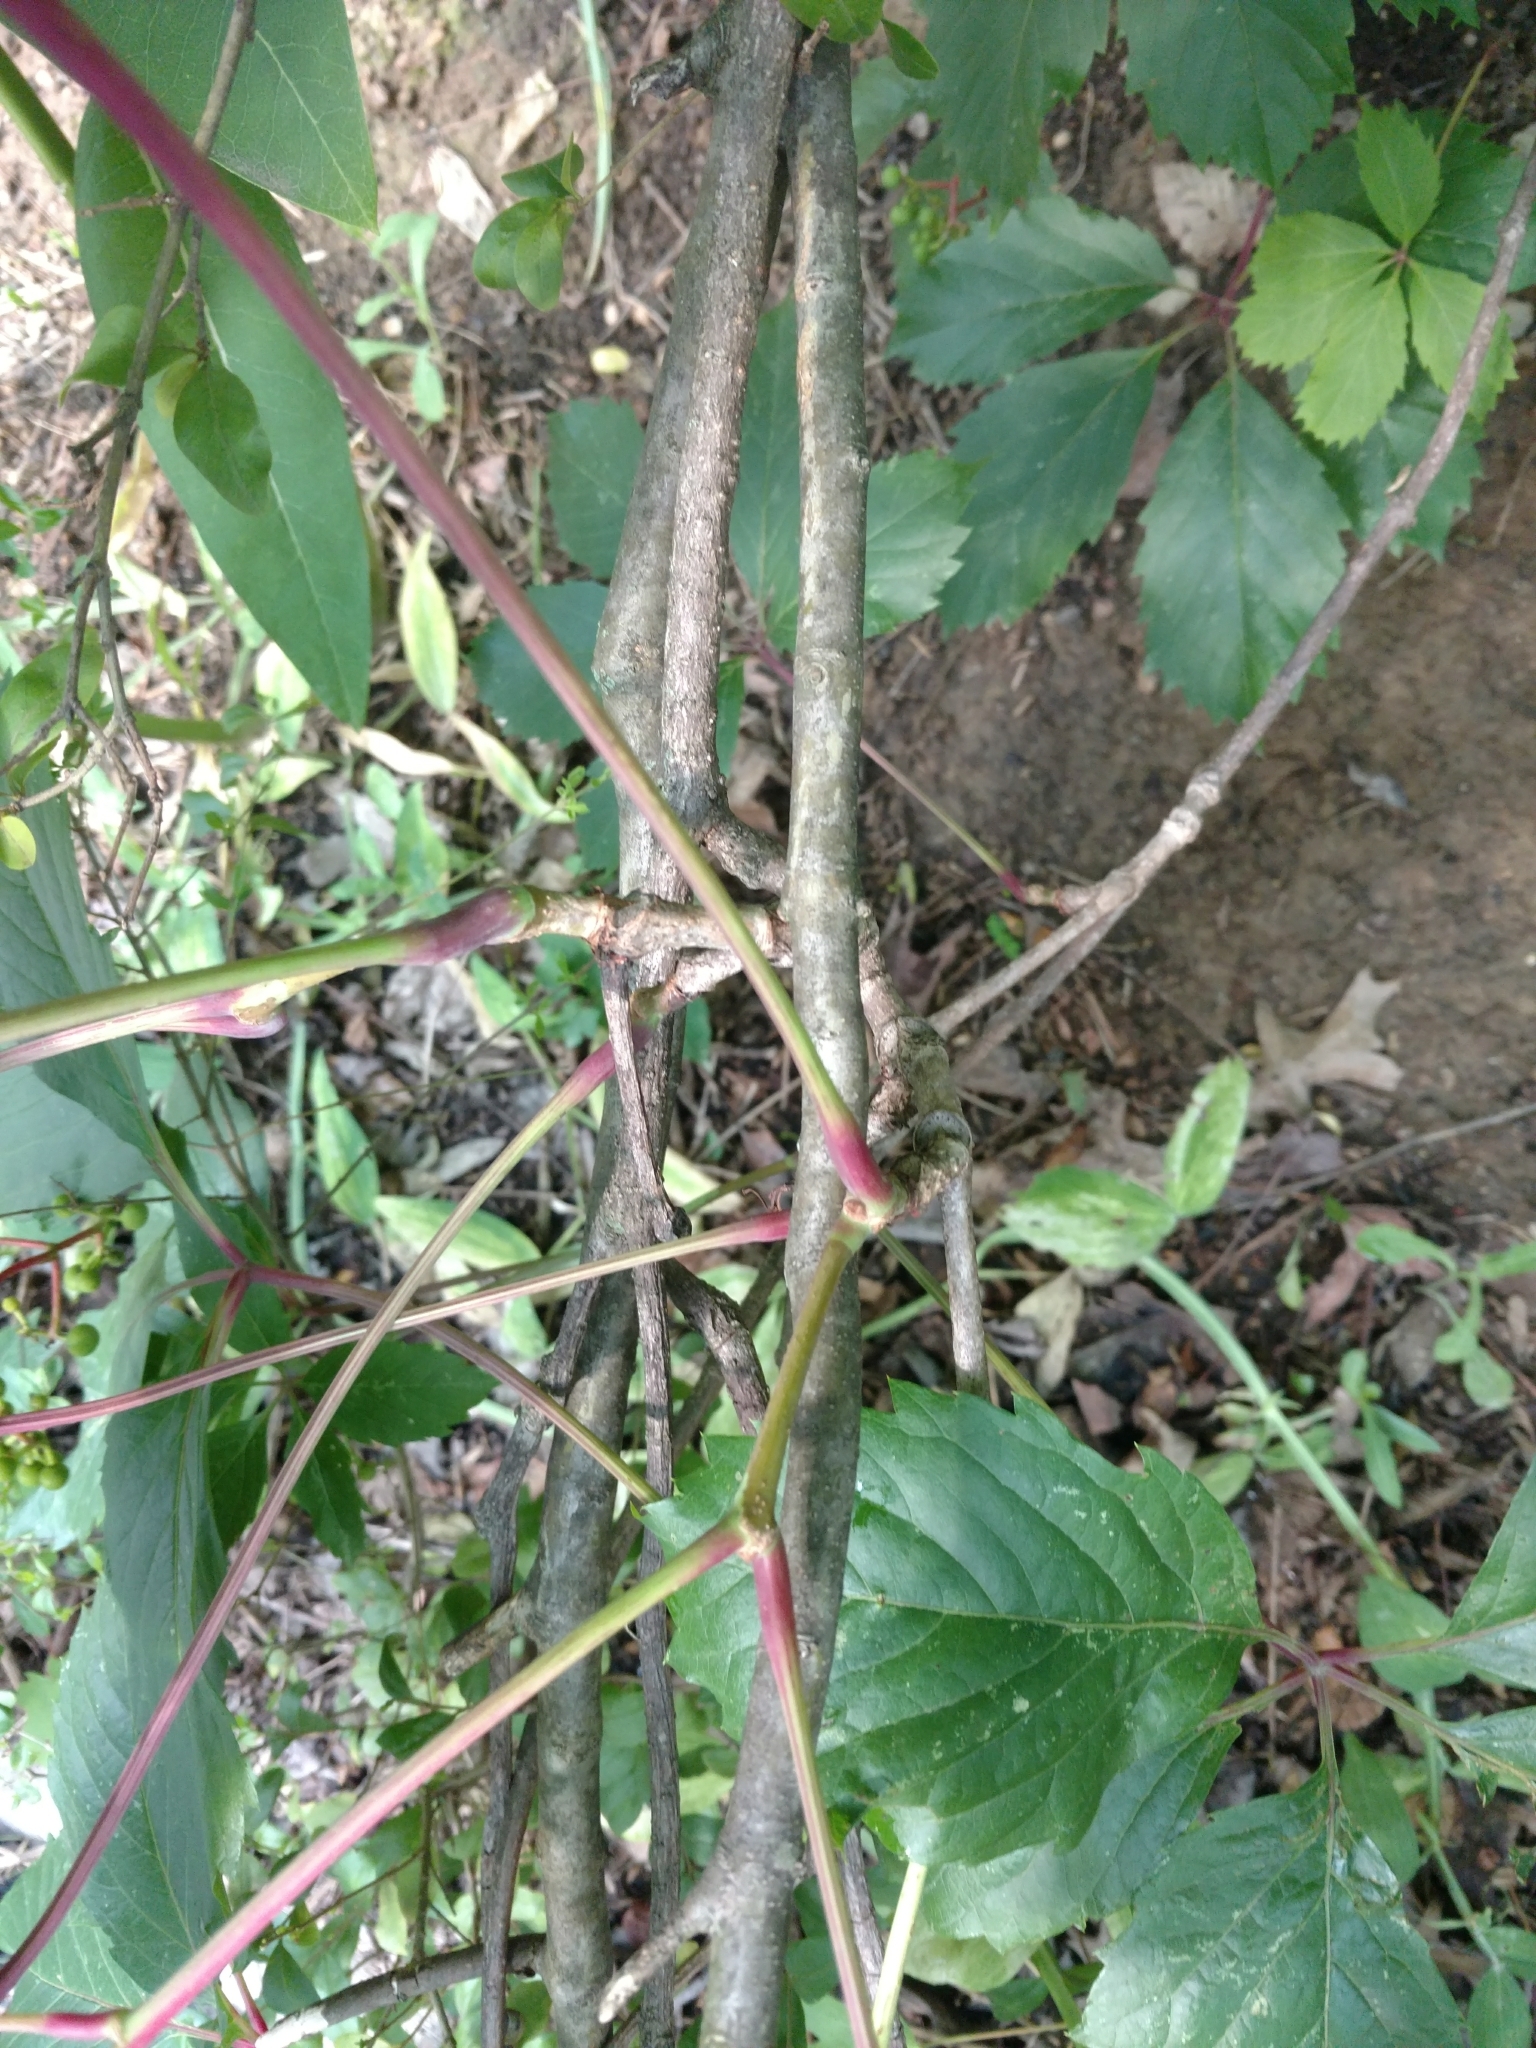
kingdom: Plantae
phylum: Tracheophyta
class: Magnoliopsida
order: Vitales
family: Vitaceae
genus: Parthenocissus
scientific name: Parthenocissus inserta
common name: False virginia-creeper
